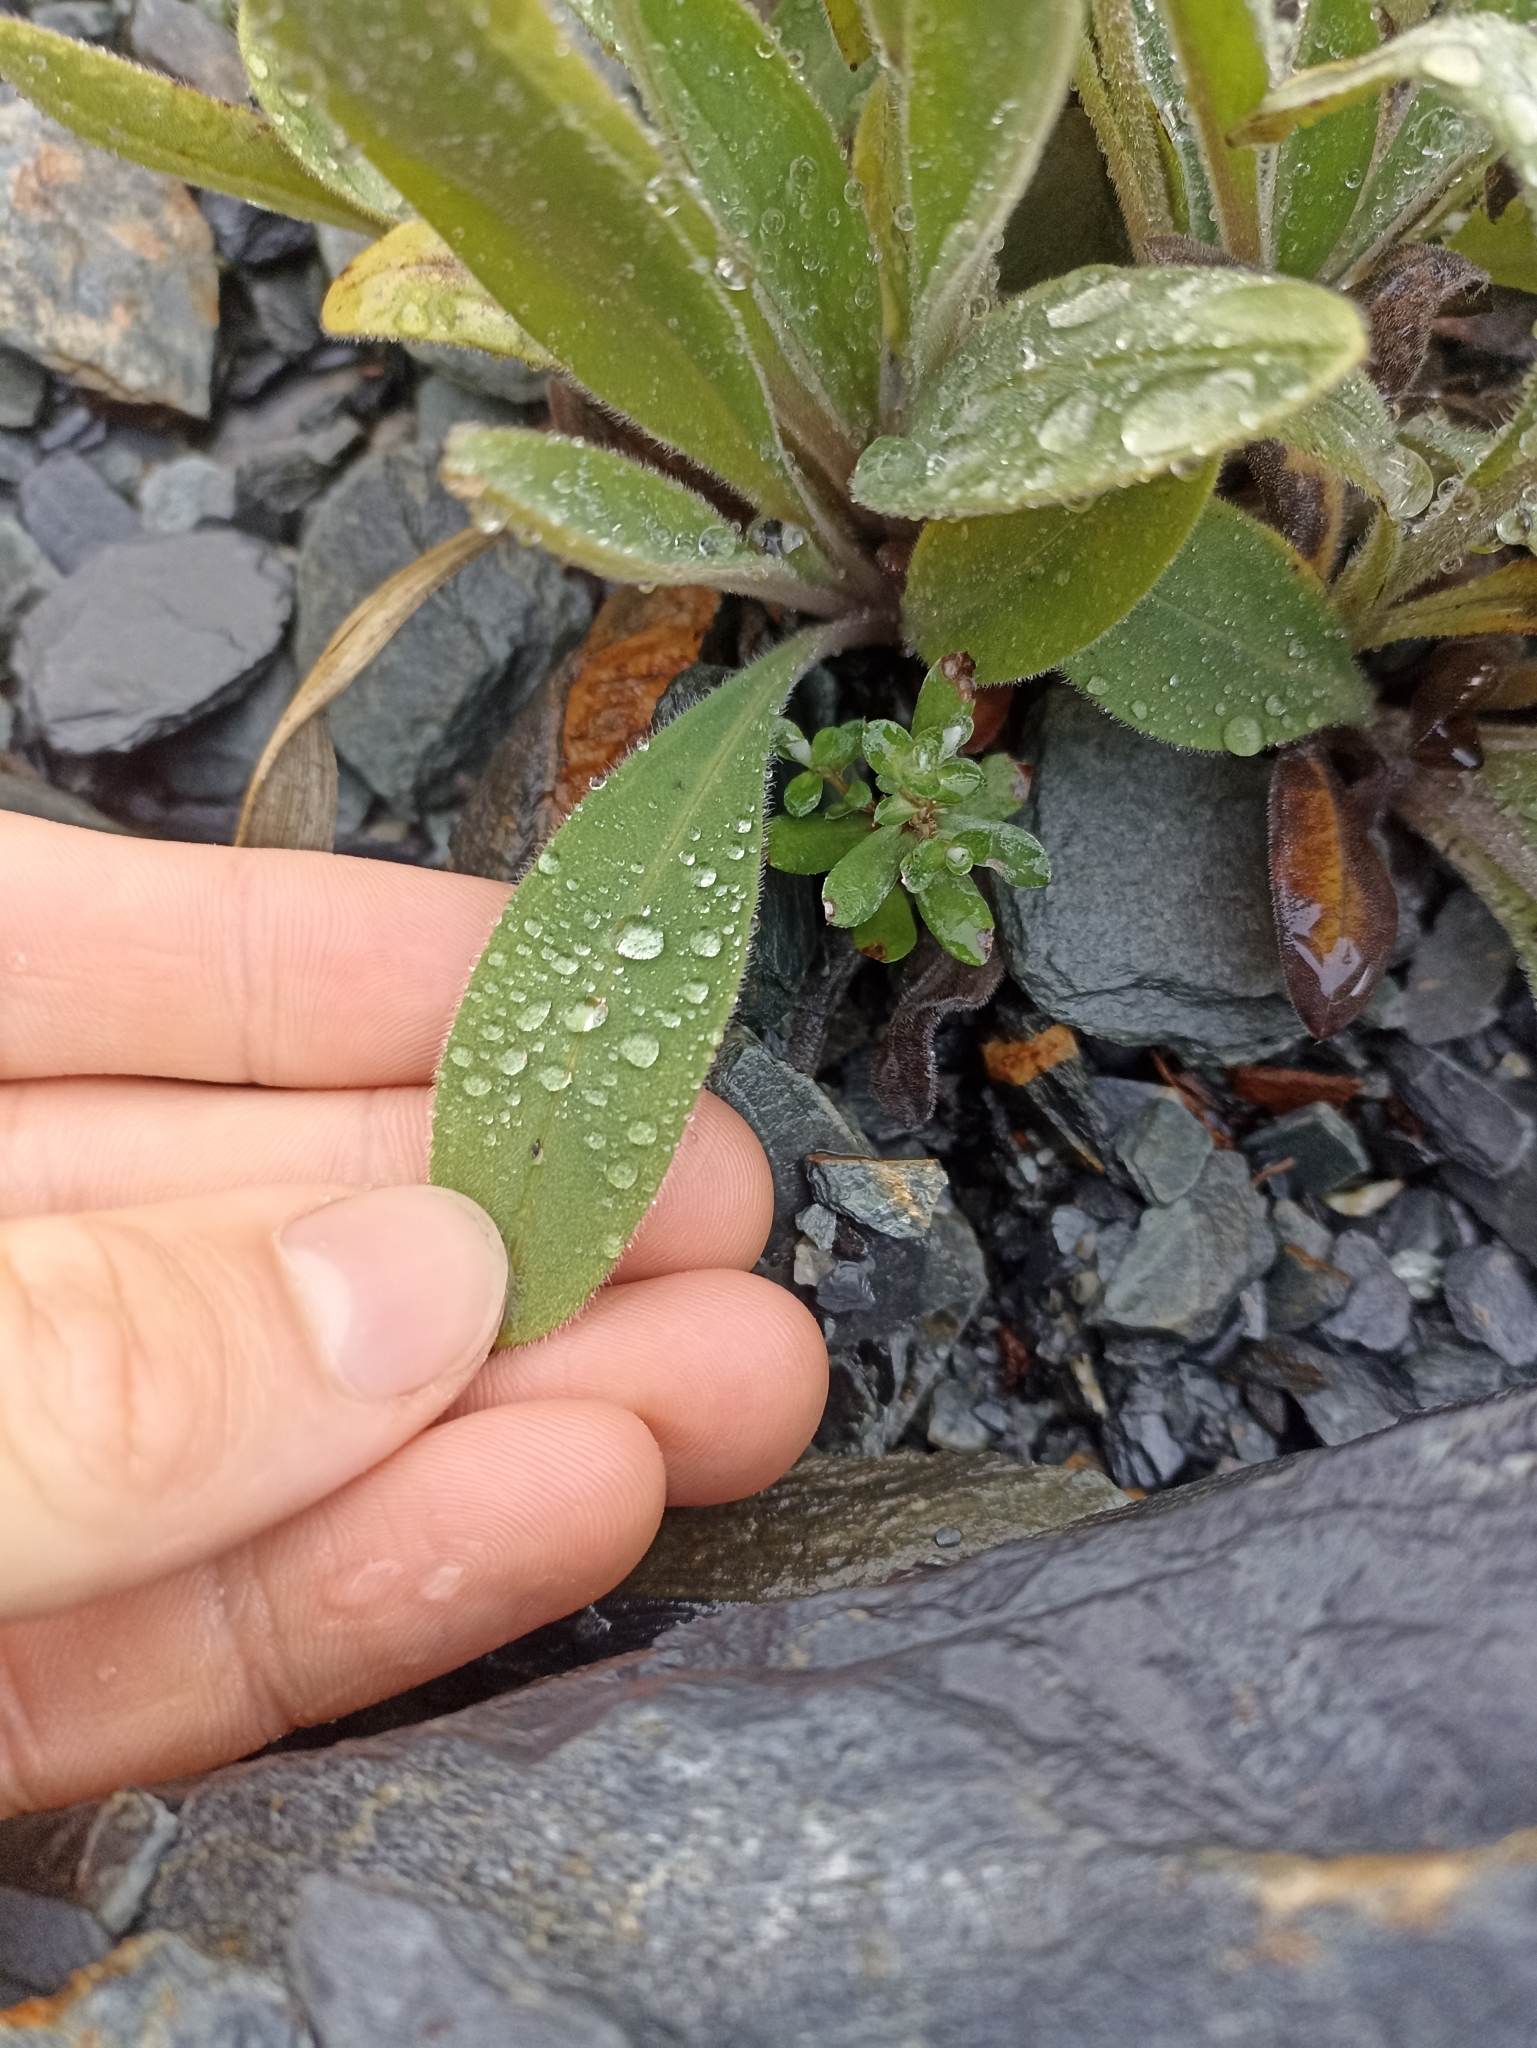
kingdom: Plantae
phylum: Tracheophyta
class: Magnoliopsida
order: Boraginales
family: Boraginaceae
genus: Myosotis
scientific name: Myosotis macrantha
